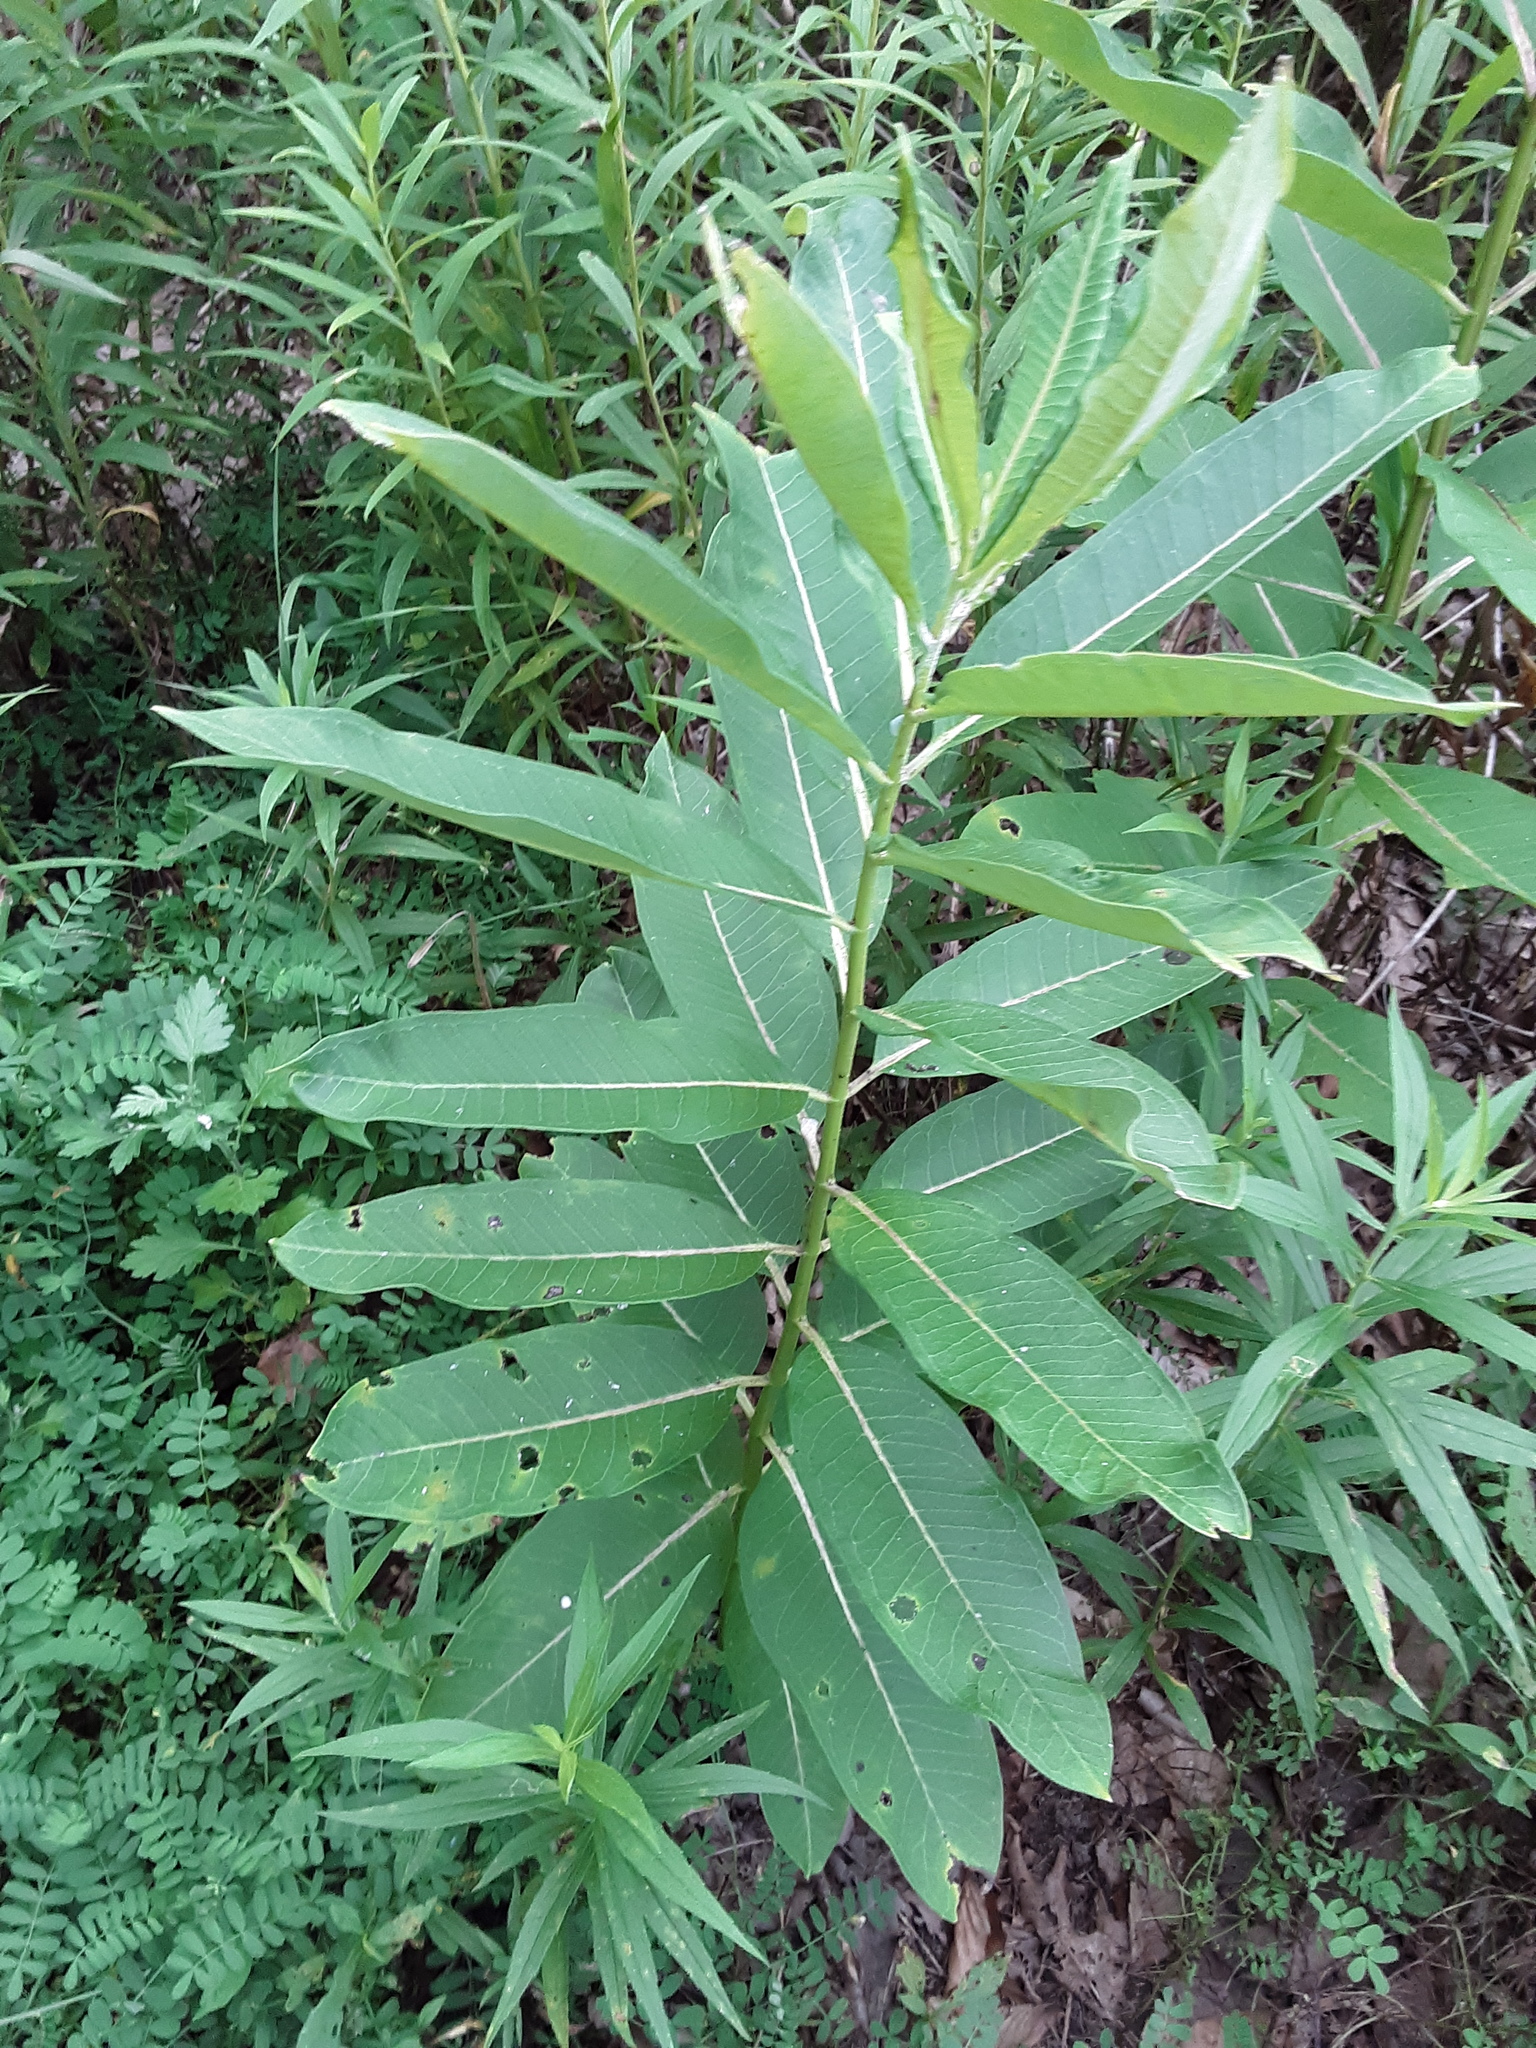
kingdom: Plantae
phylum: Tracheophyta
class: Magnoliopsida
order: Gentianales
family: Apocynaceae
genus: Asclepias
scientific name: Asclepias syriaca
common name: Common milkweed
